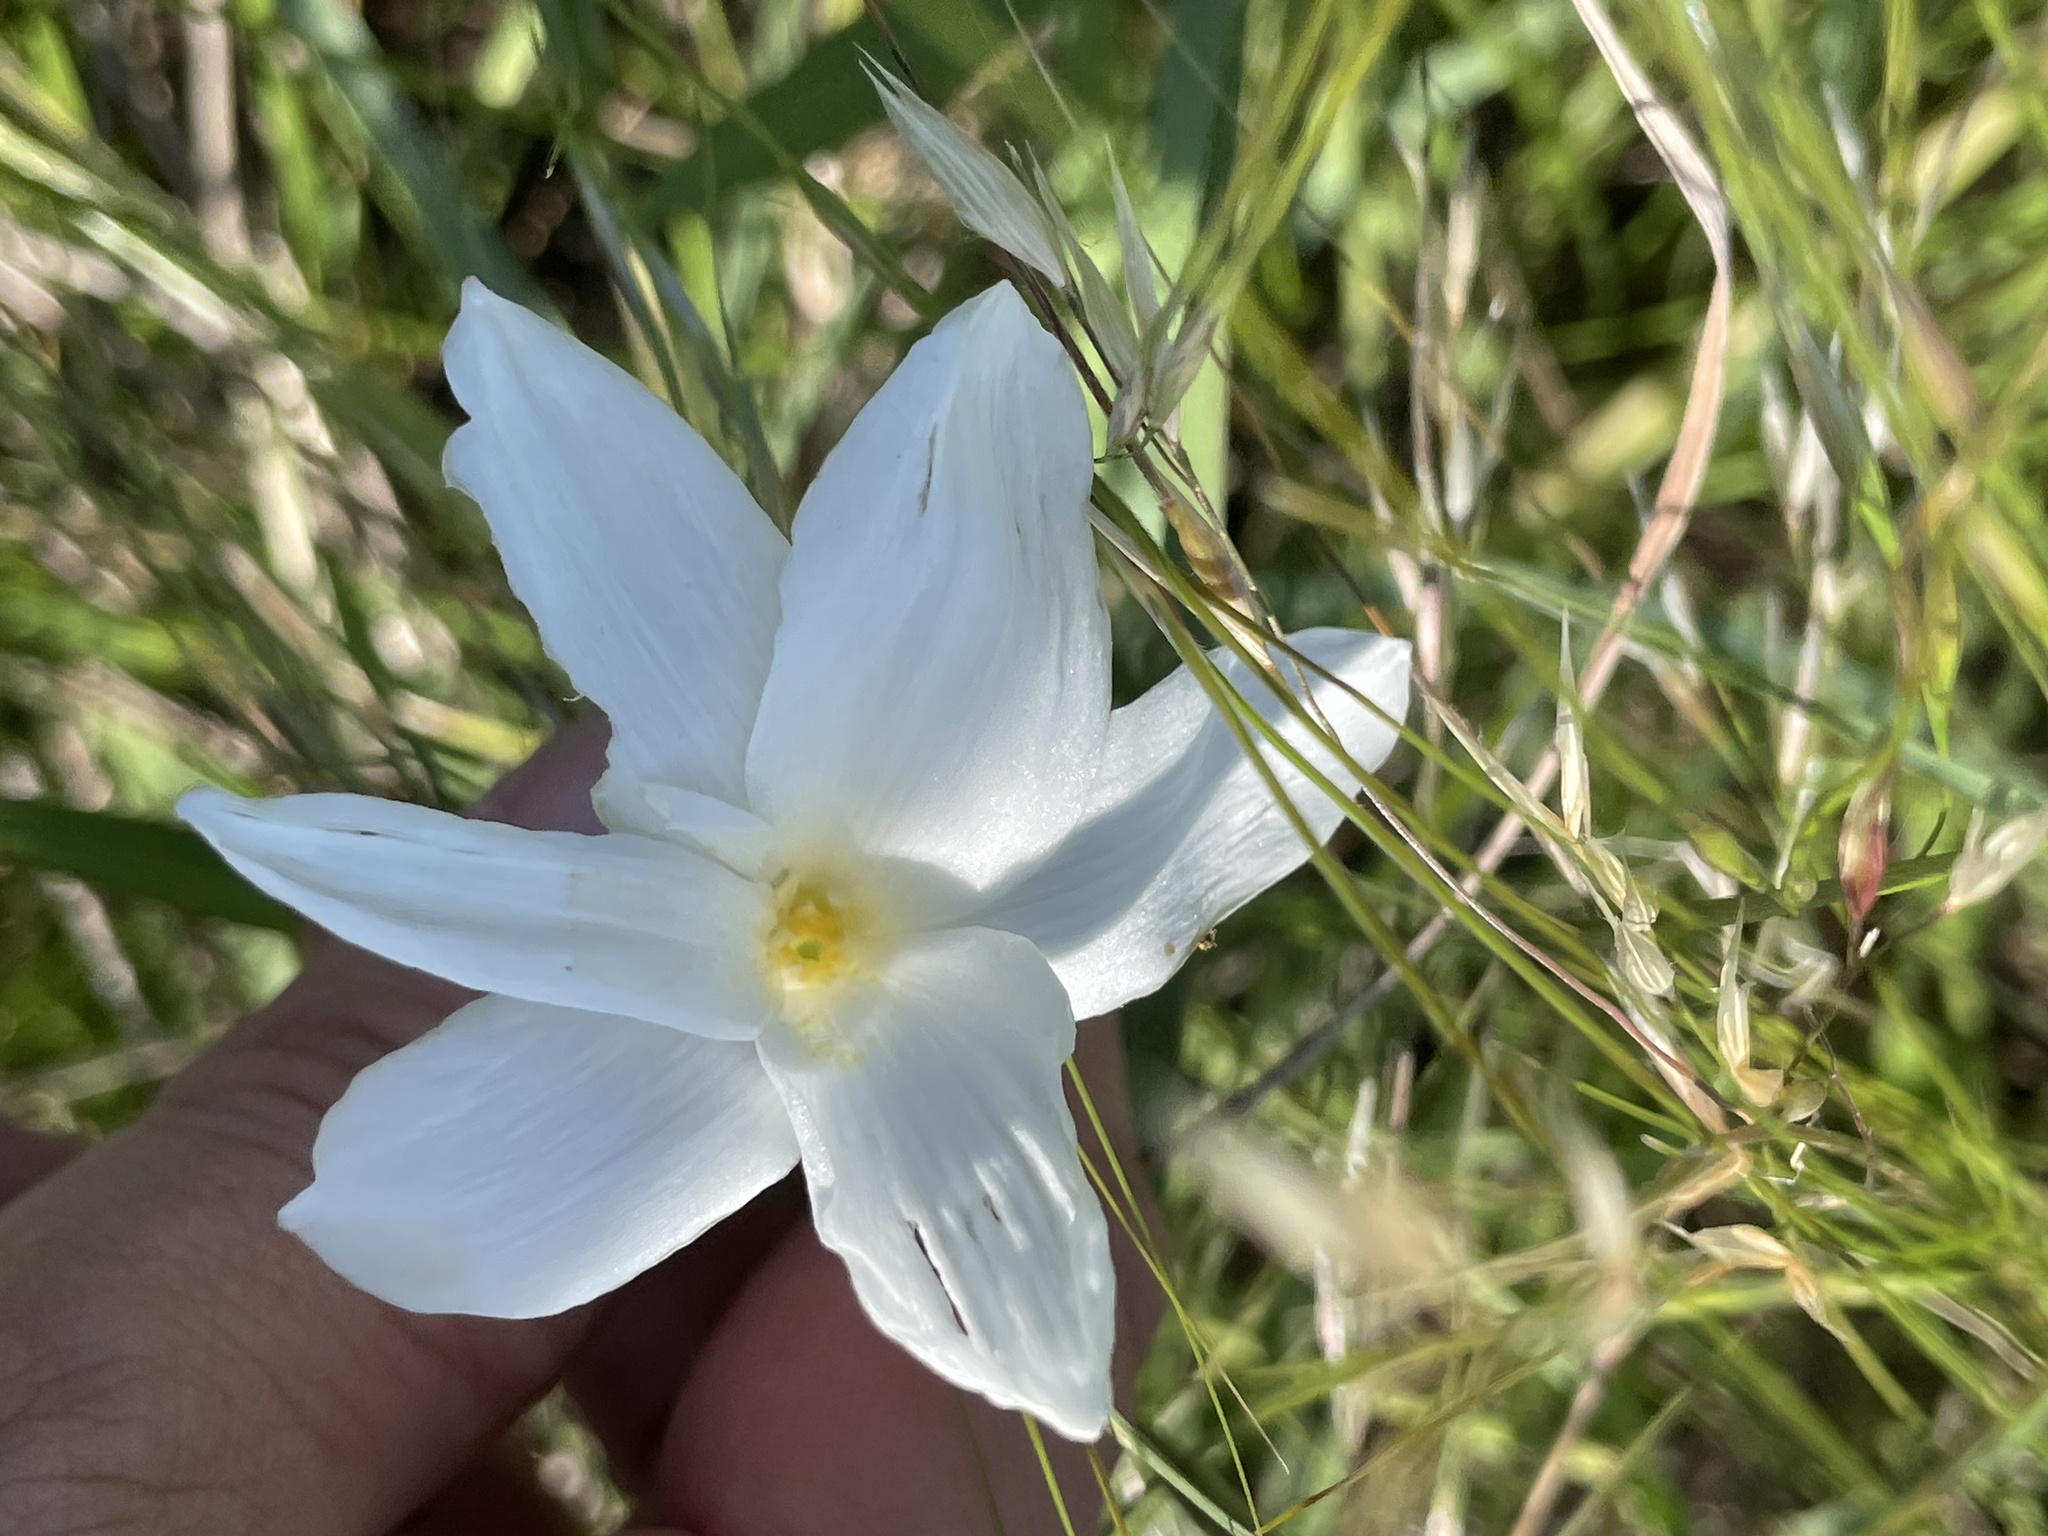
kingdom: Plantae
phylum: Tracheophyta
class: Liliopsida
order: Asparagales
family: Amaryllidaceae
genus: Zephyranthes
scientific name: Zephyranthes drummondii
